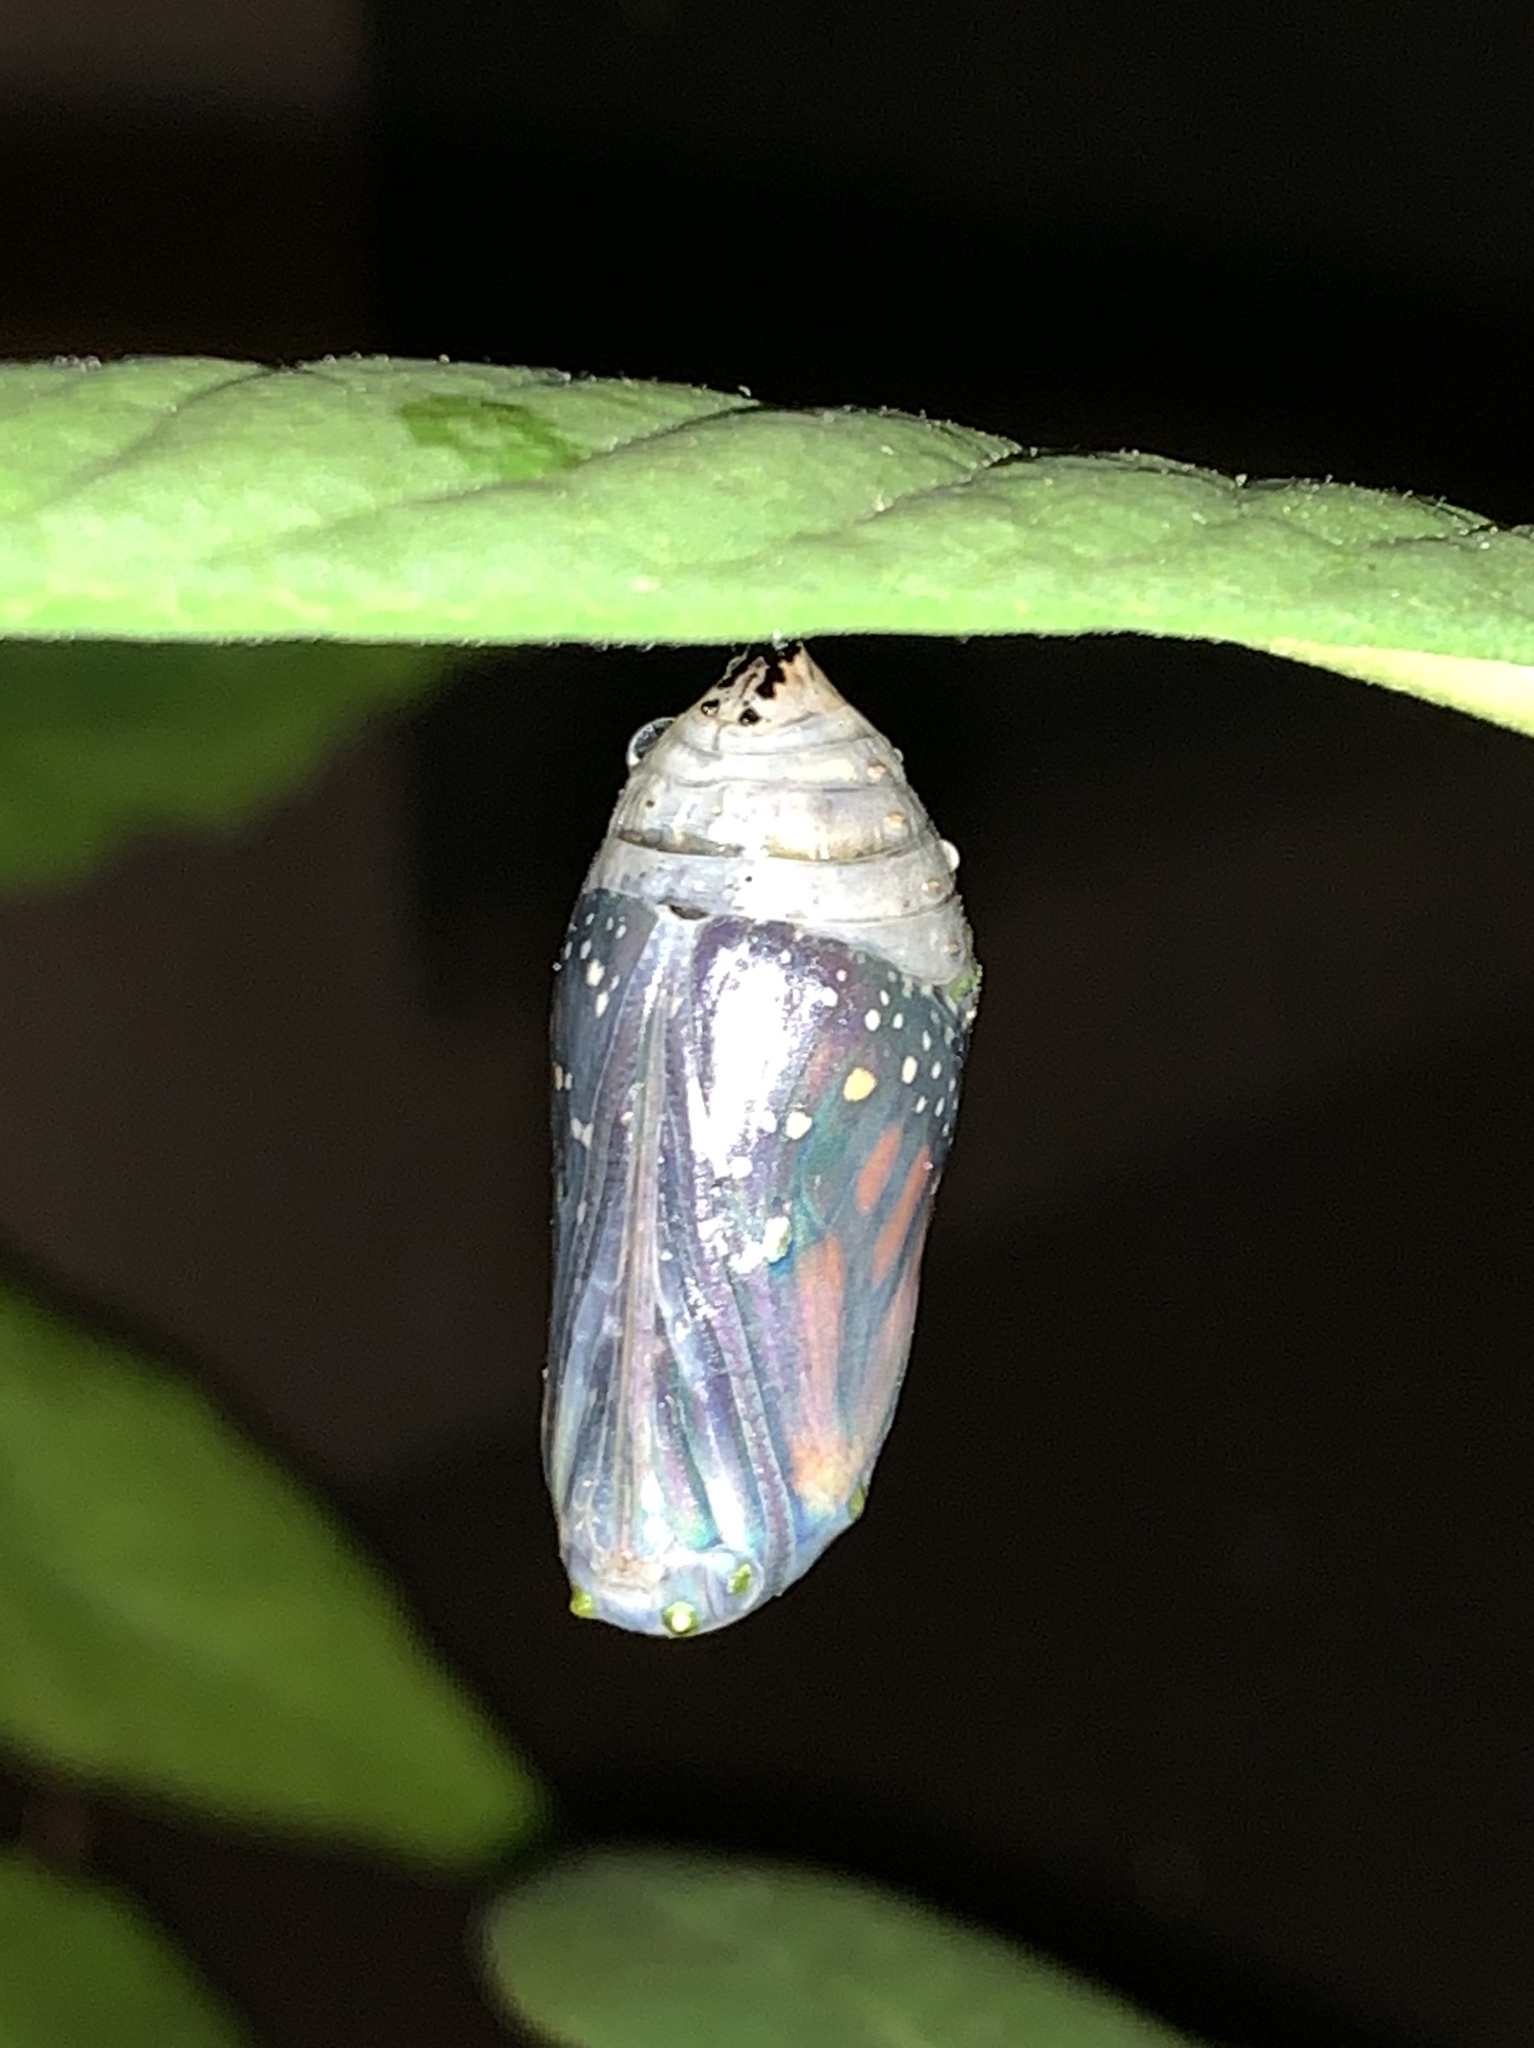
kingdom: Animalia
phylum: Arthropoda
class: Insecta
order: Lepidoptera
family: Nymphalidae
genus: Danaus
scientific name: Danaus plexippus
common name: Monarch
